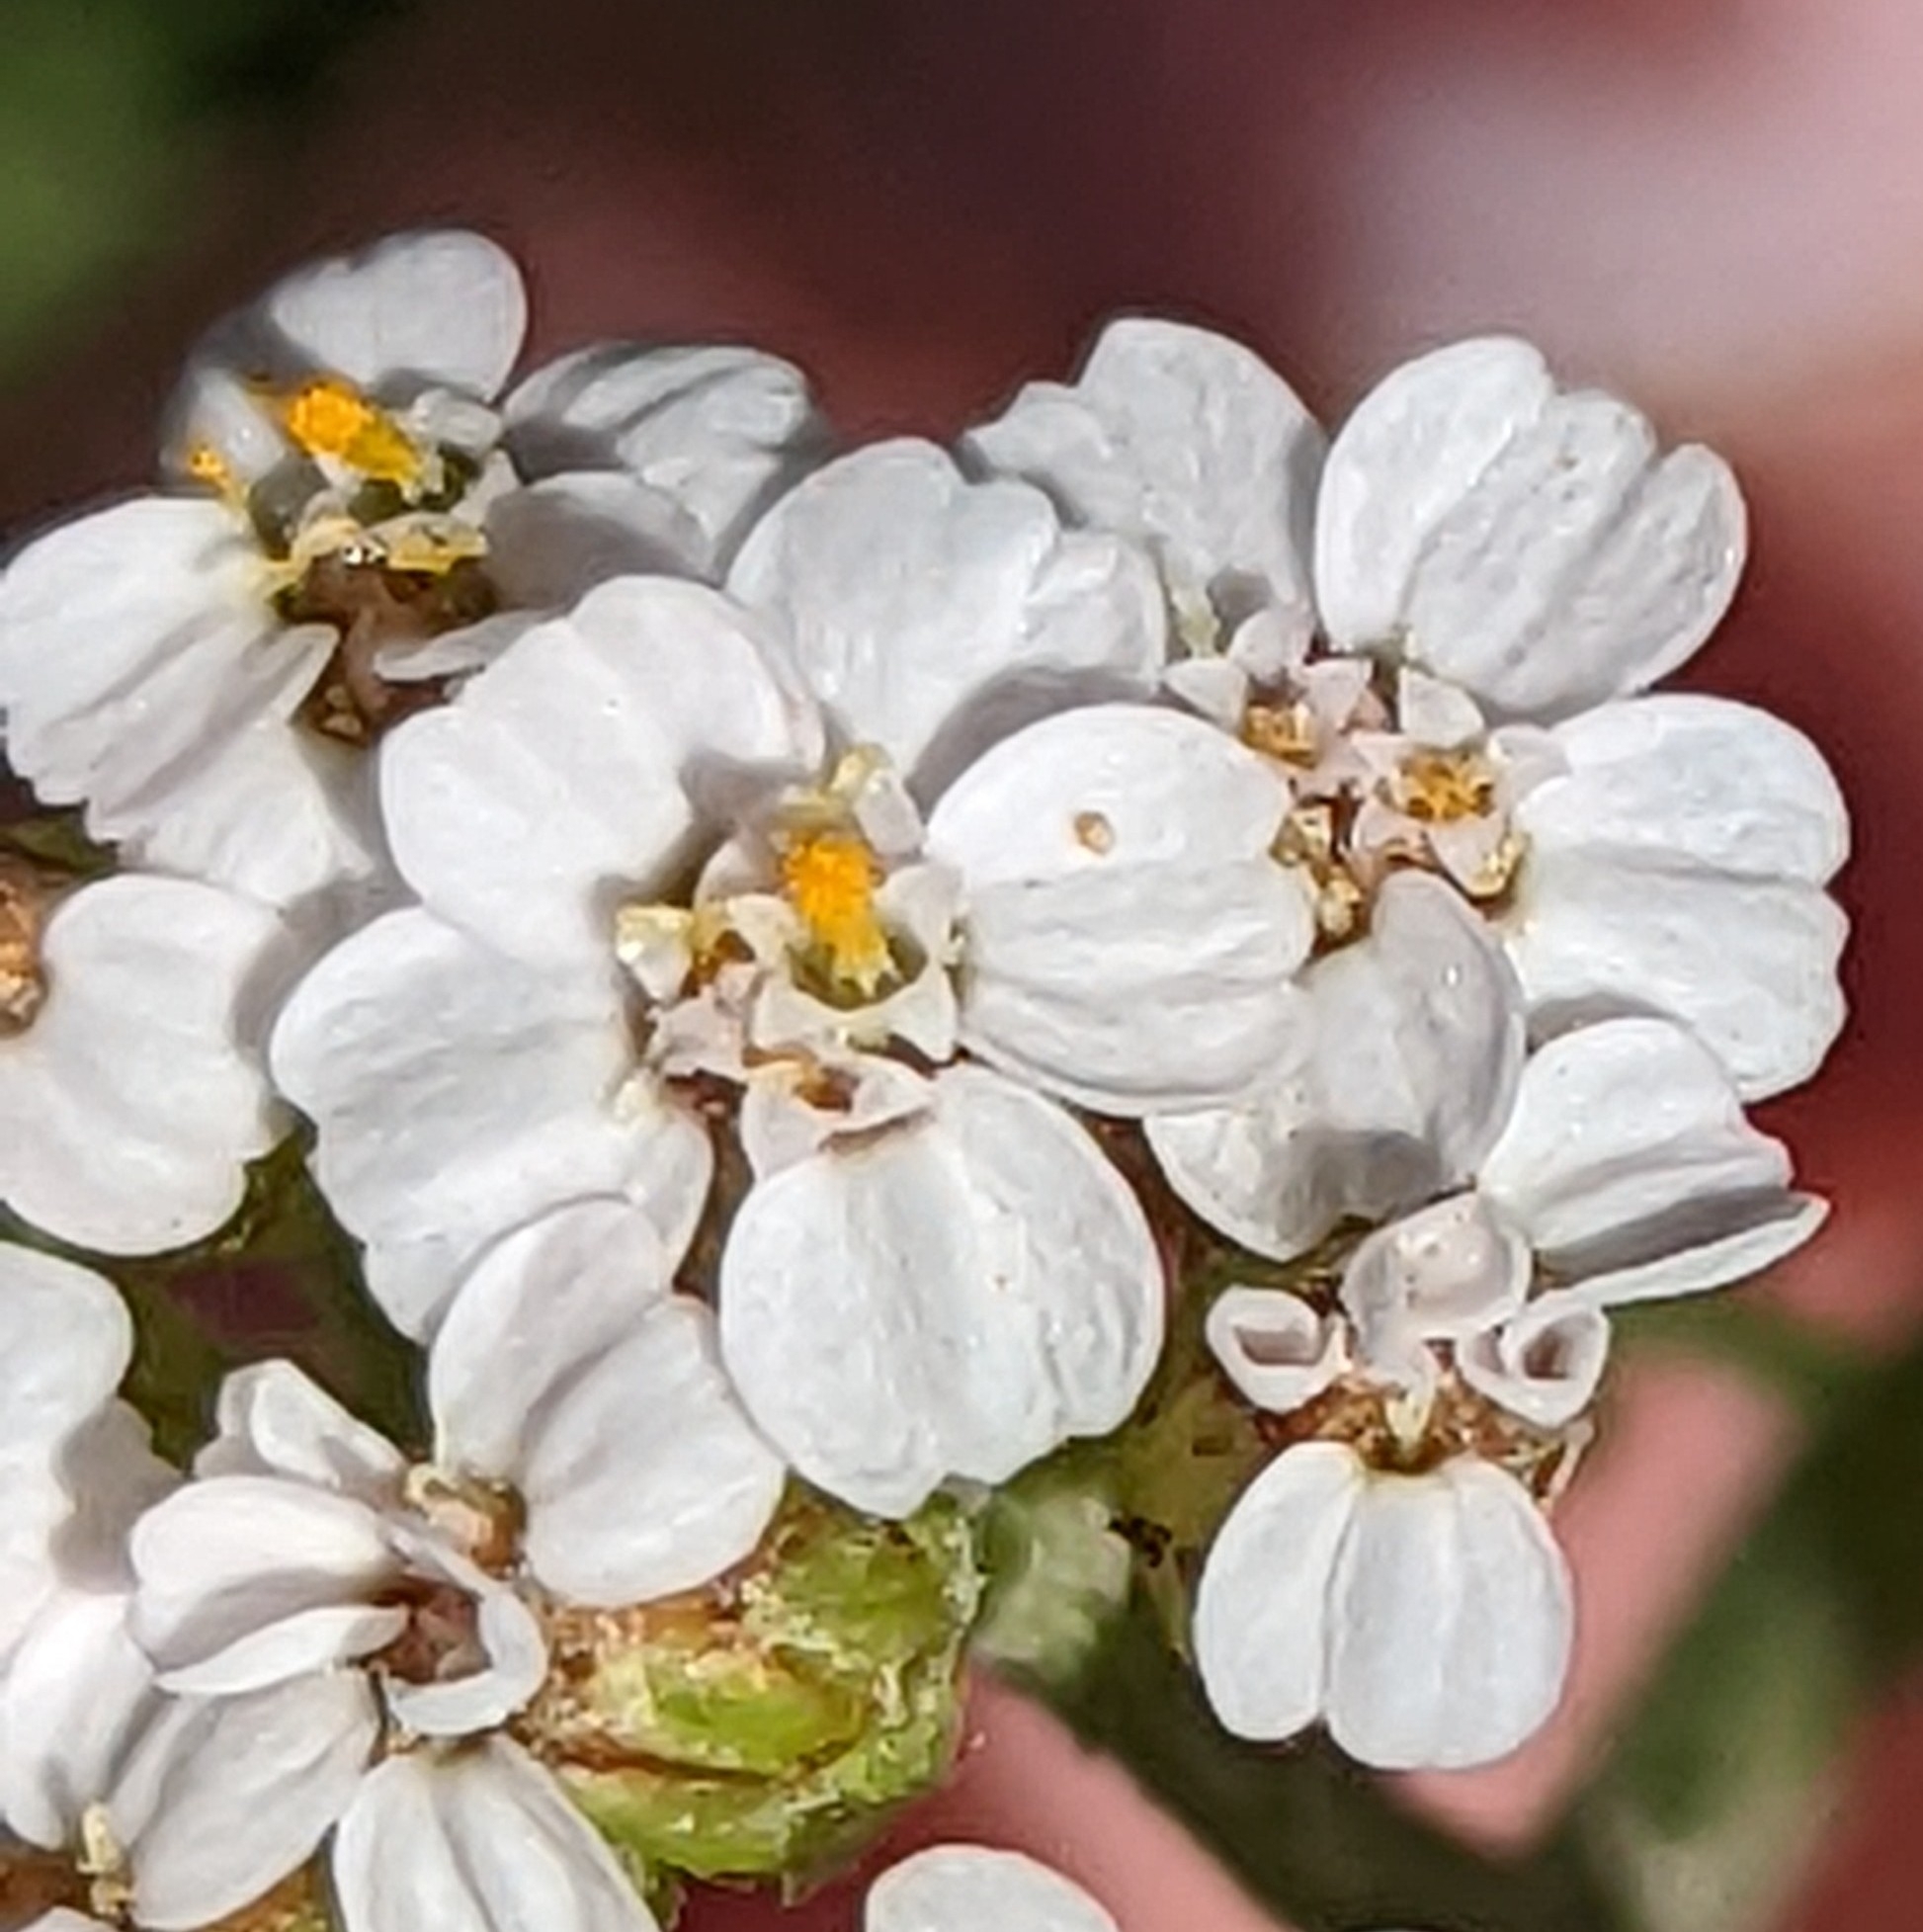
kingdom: Plantae
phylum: Tracheophyta
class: Magnoliopsida
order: Asterales
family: Asteraceae
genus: Achillea
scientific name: Achillea millefolium
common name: Yarrow
